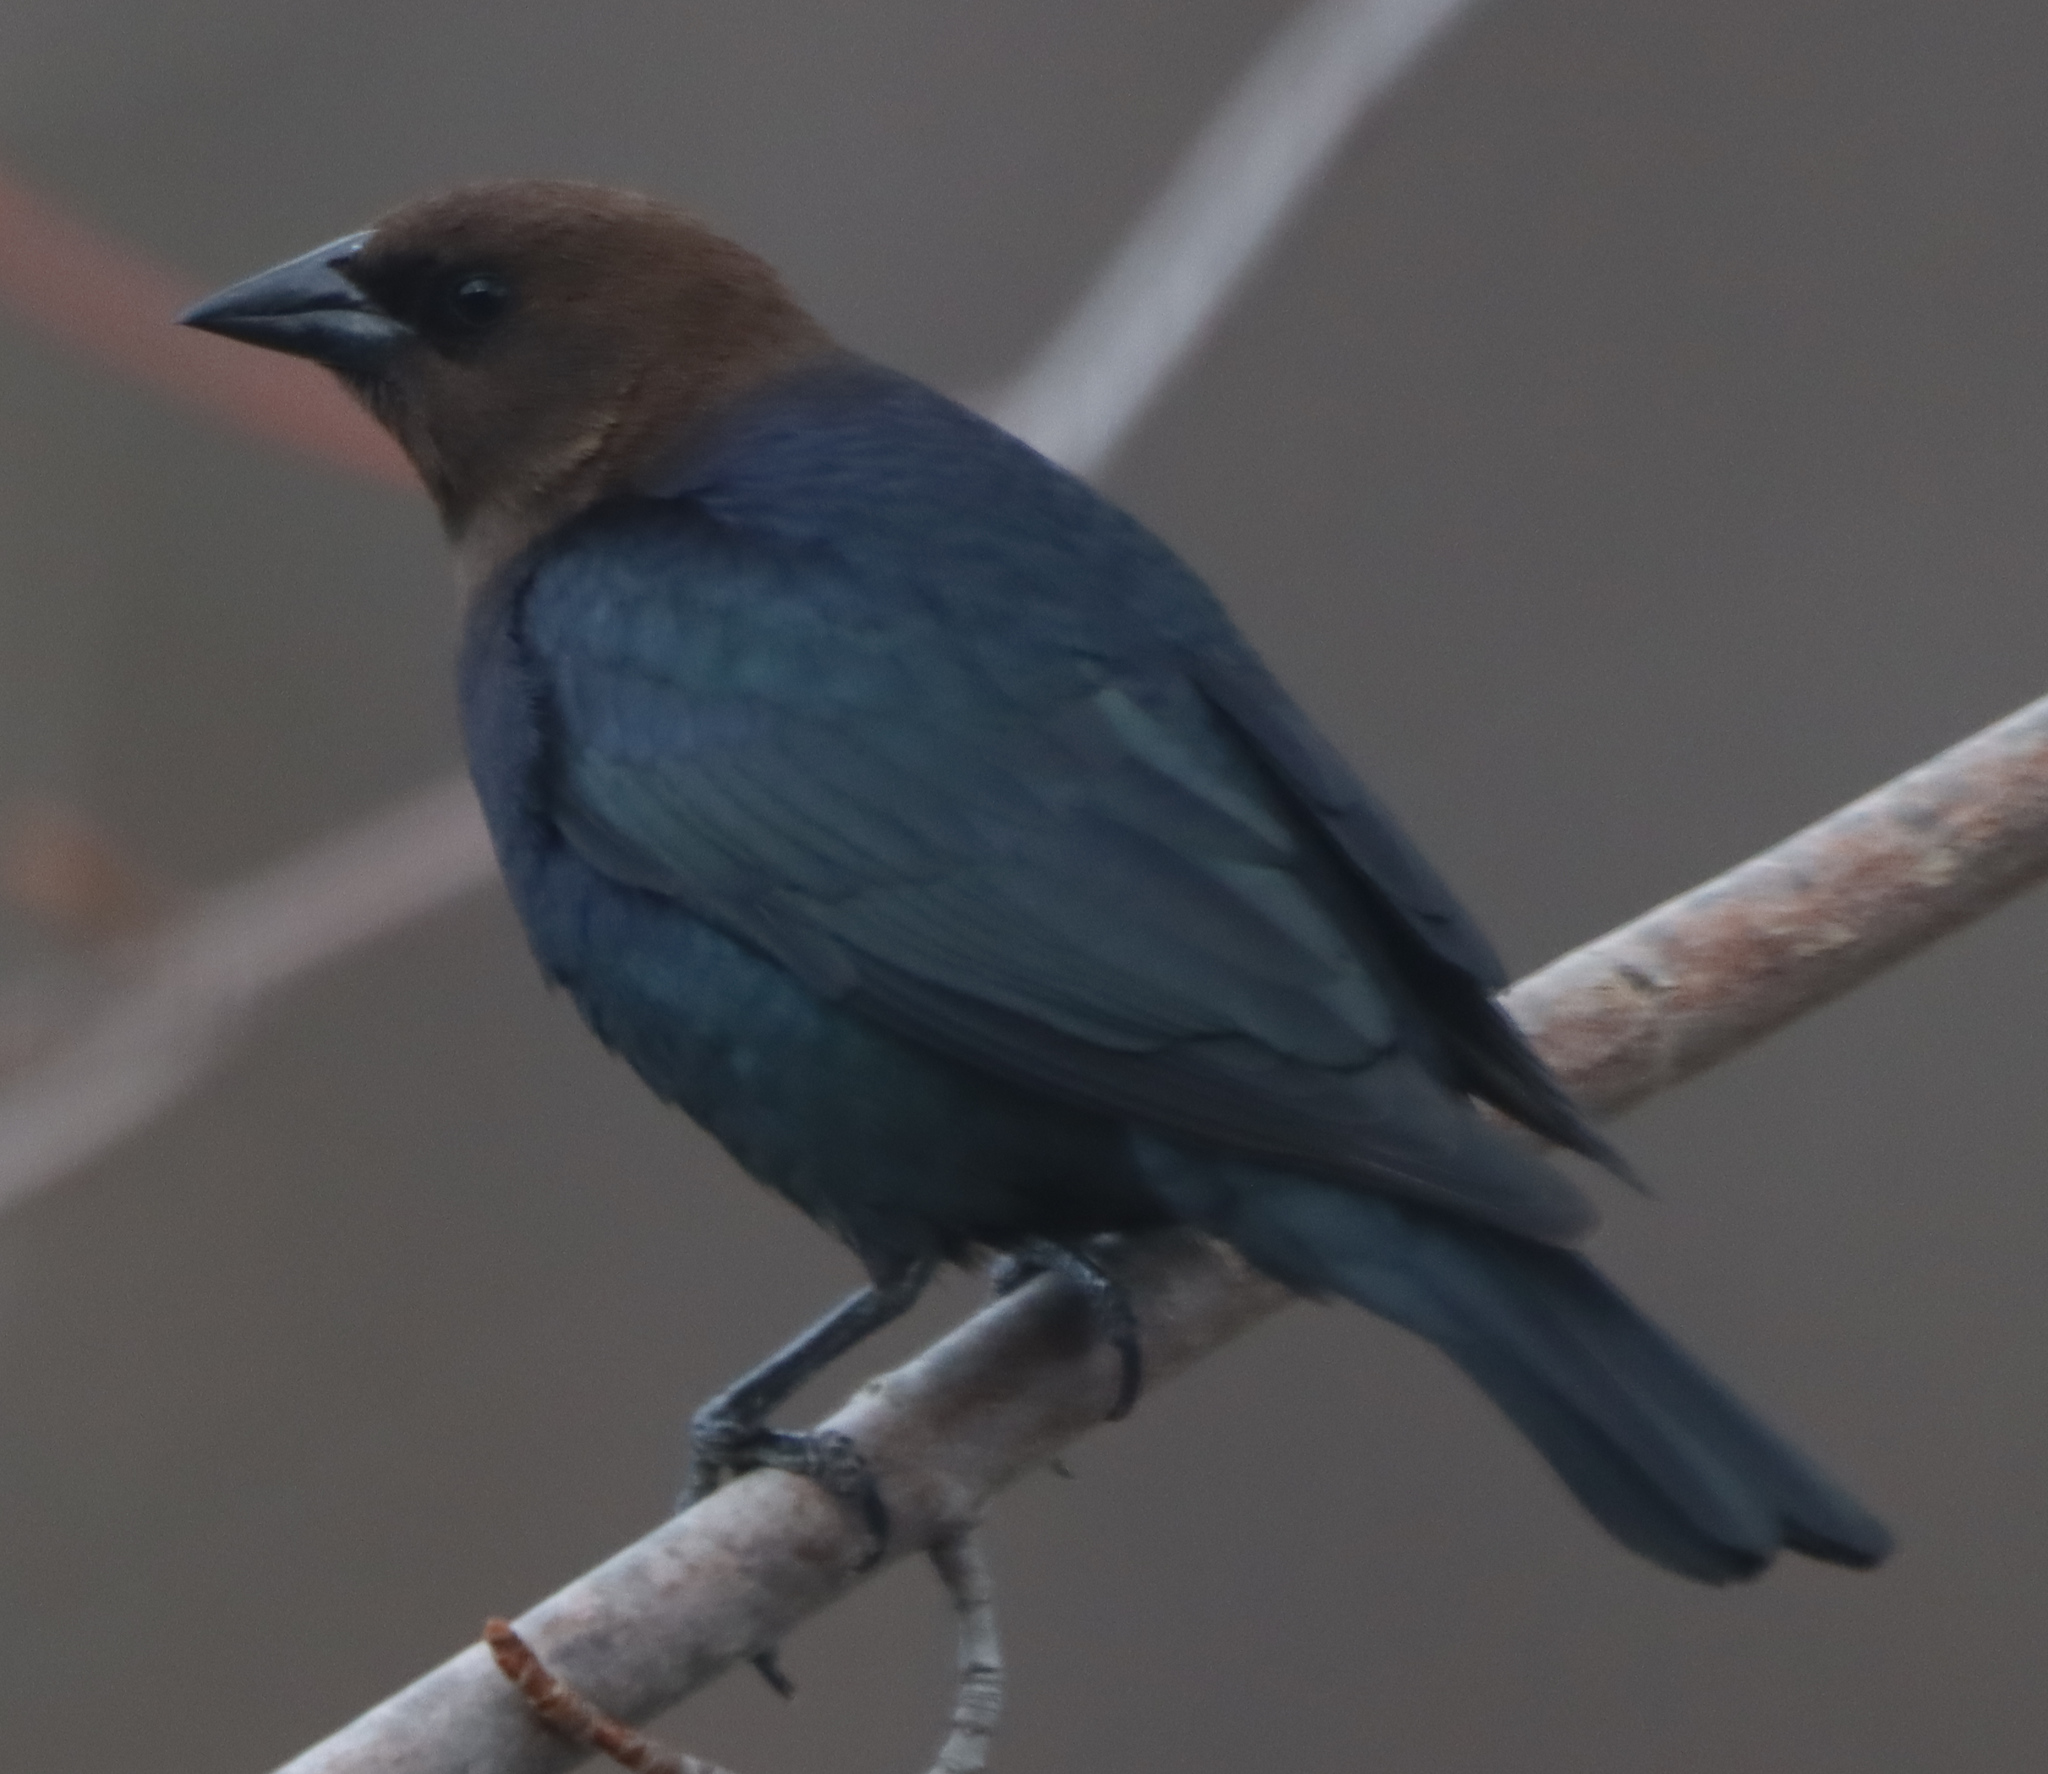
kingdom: Animalia
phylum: Chordata
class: Aves
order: Passeriformes
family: Icteridae
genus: Molothrus
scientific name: Molothrus ater
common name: Brown-headed cowbird
